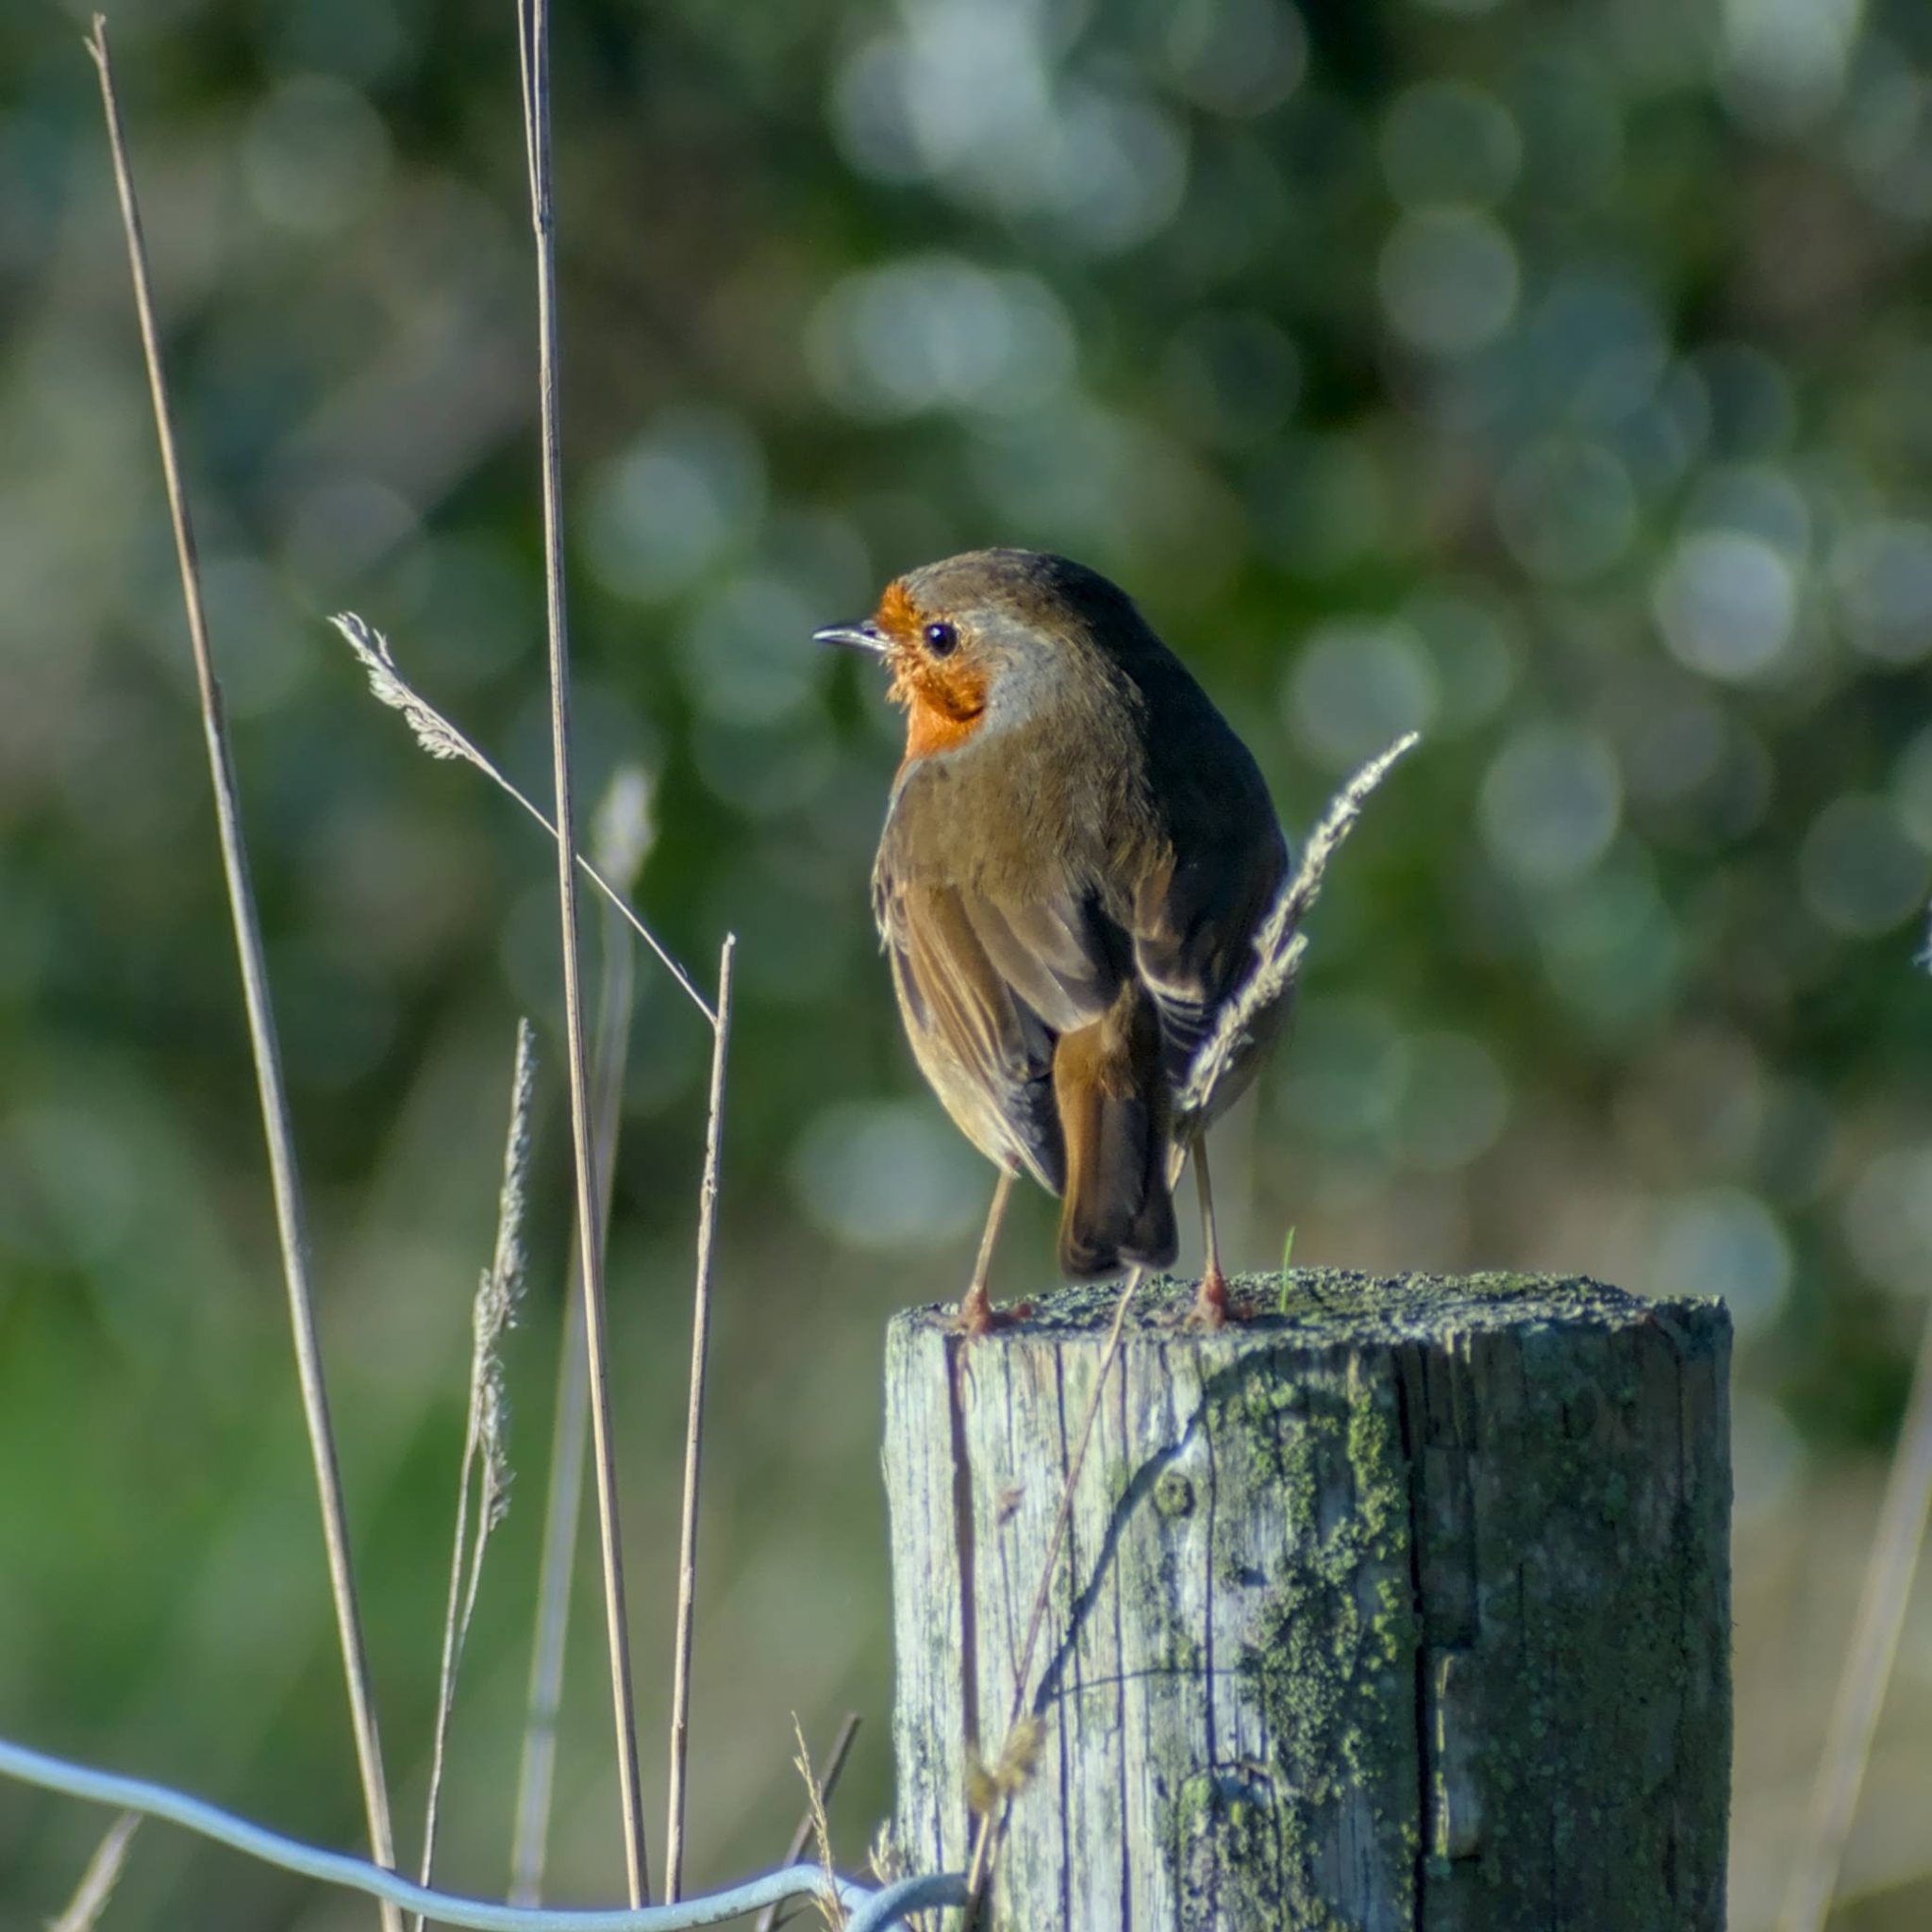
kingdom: Animalia
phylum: Chordata
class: Aves
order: Passeriformes
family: Muscicapidae
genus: Erithacus
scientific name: Erithacus rubecula
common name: European robin
